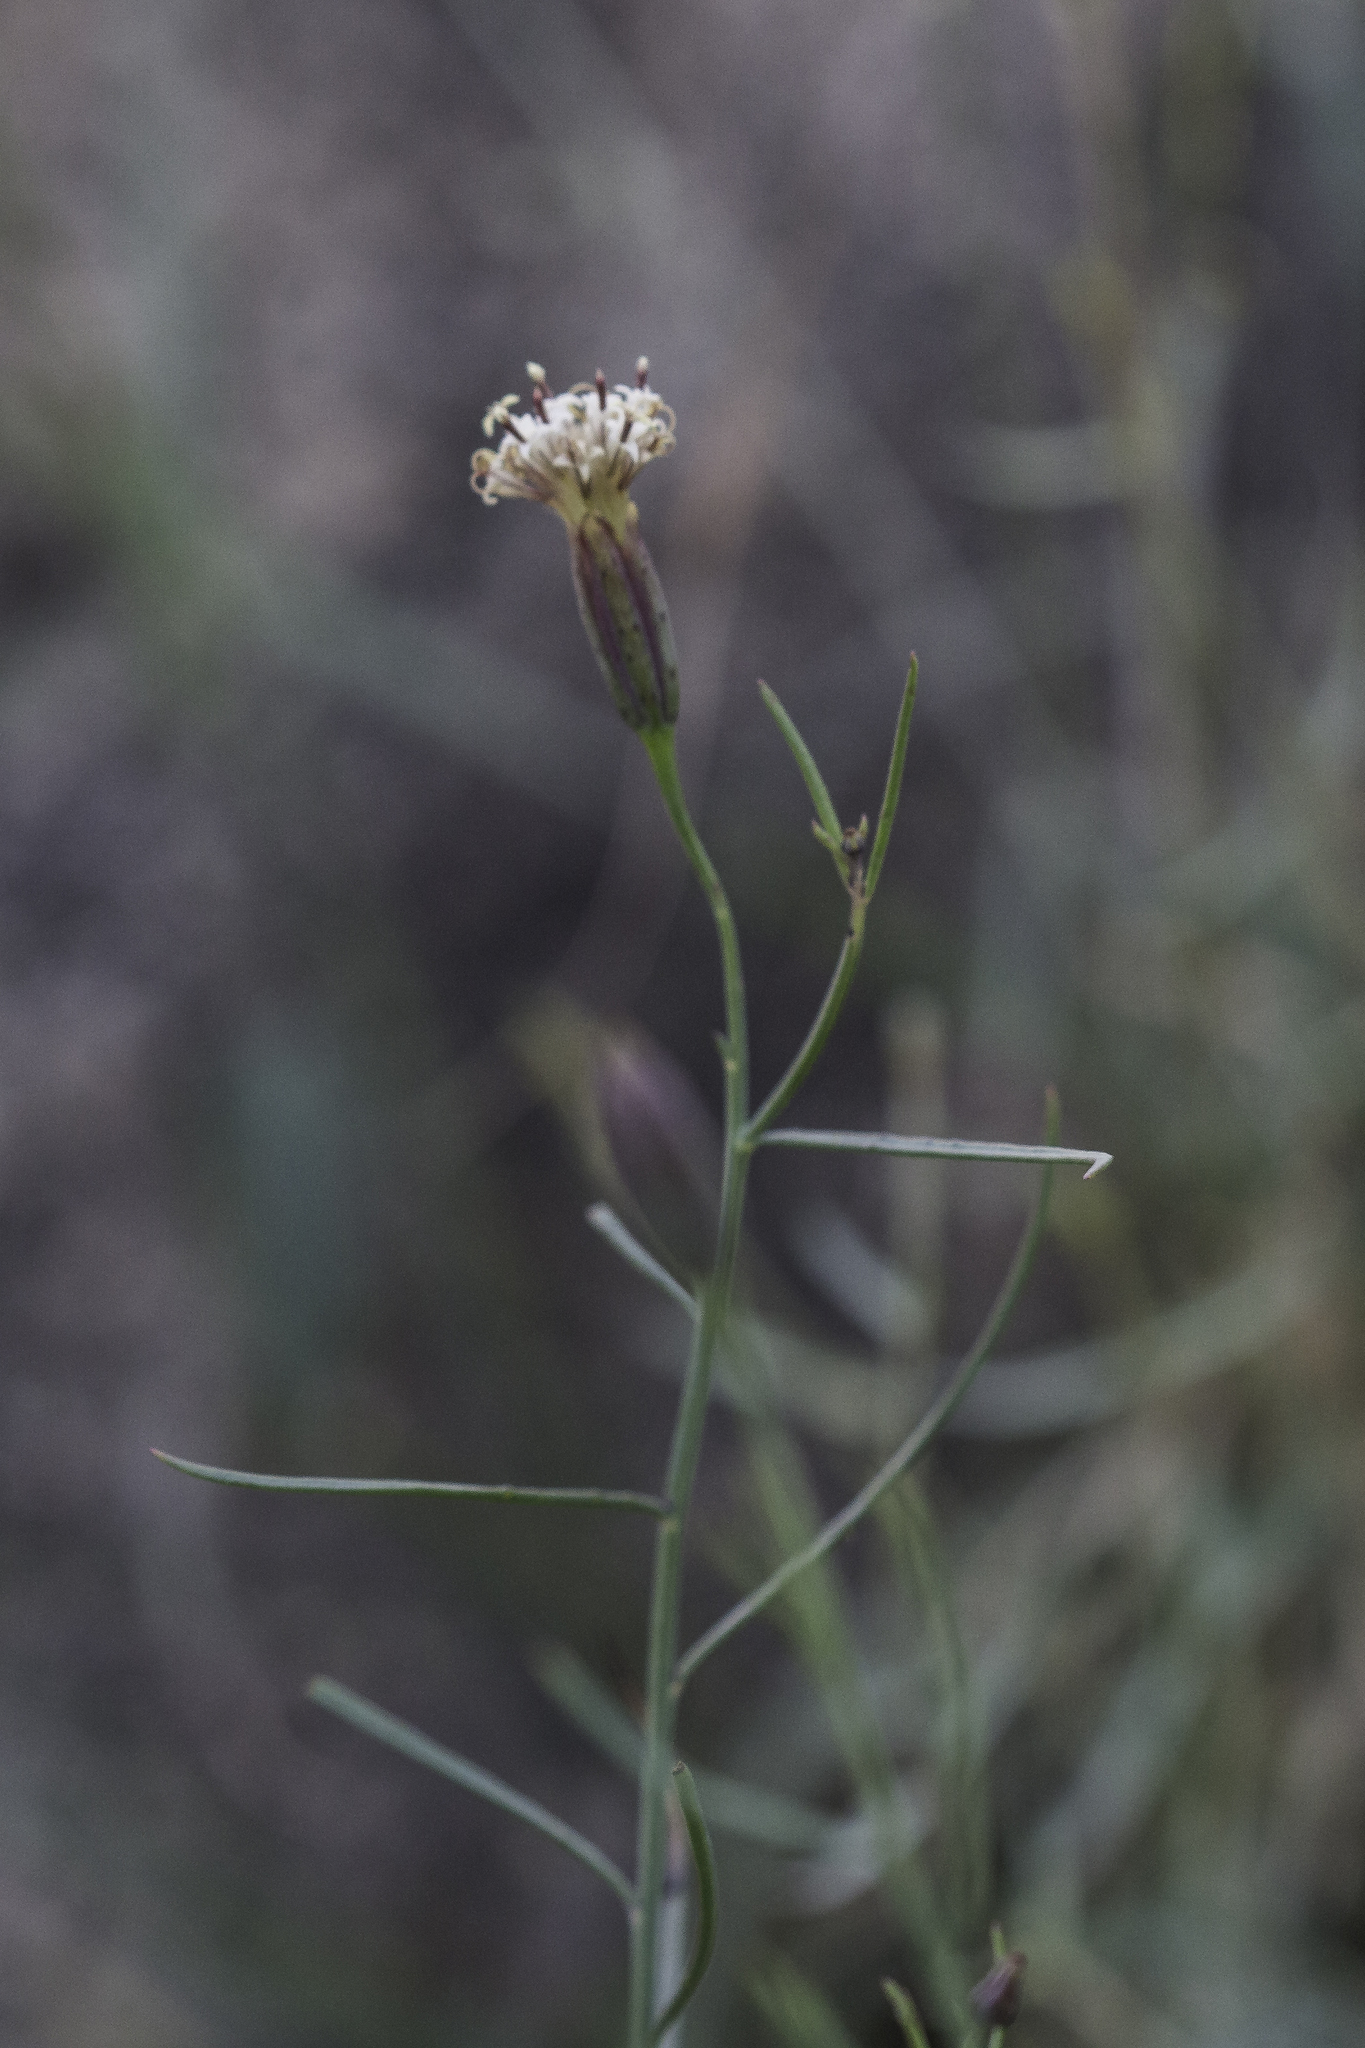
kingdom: Plantae
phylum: Tracheophyta
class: Magnoliopsida
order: Asterales
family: Asteraceae
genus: Porophyllum
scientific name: Porophyllum gracile
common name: Odora
